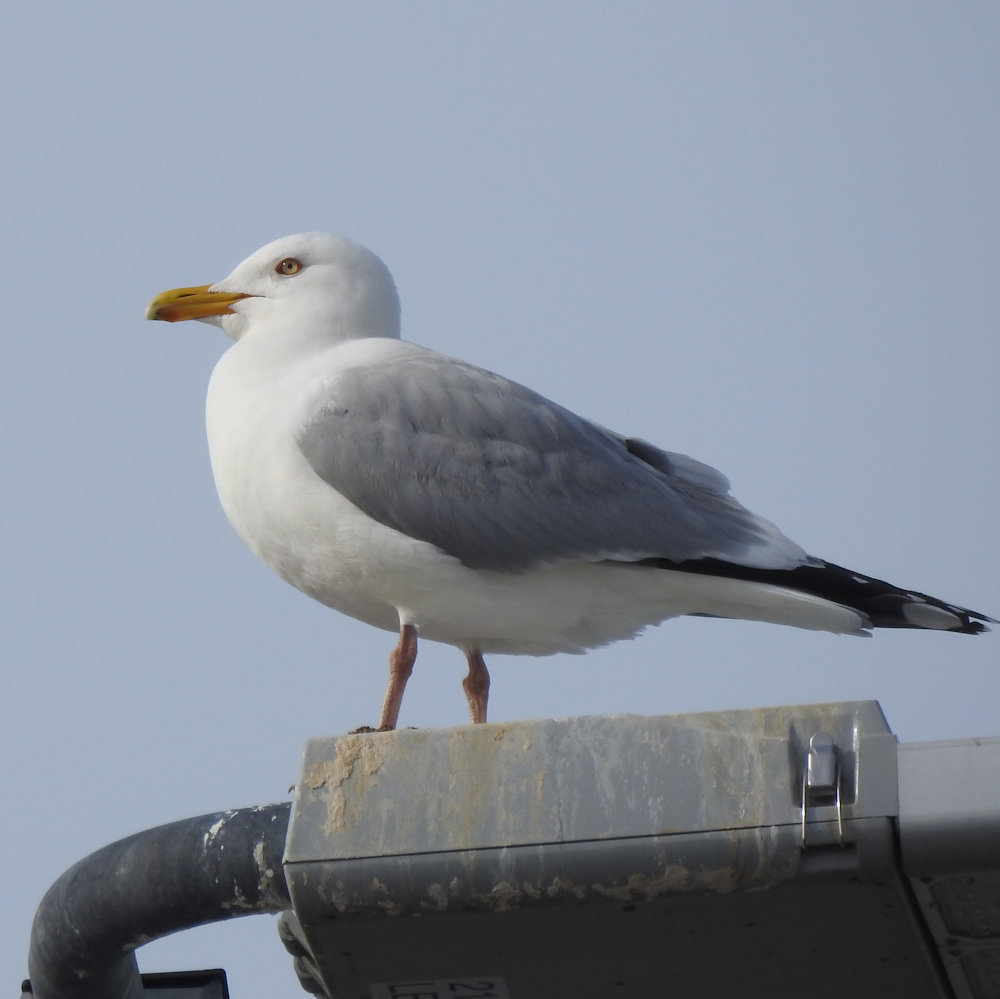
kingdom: Animalia
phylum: Chordata
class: Aves
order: Charadriiformes
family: Laridae
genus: Larus
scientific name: Larus argentatus
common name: Herring gull
